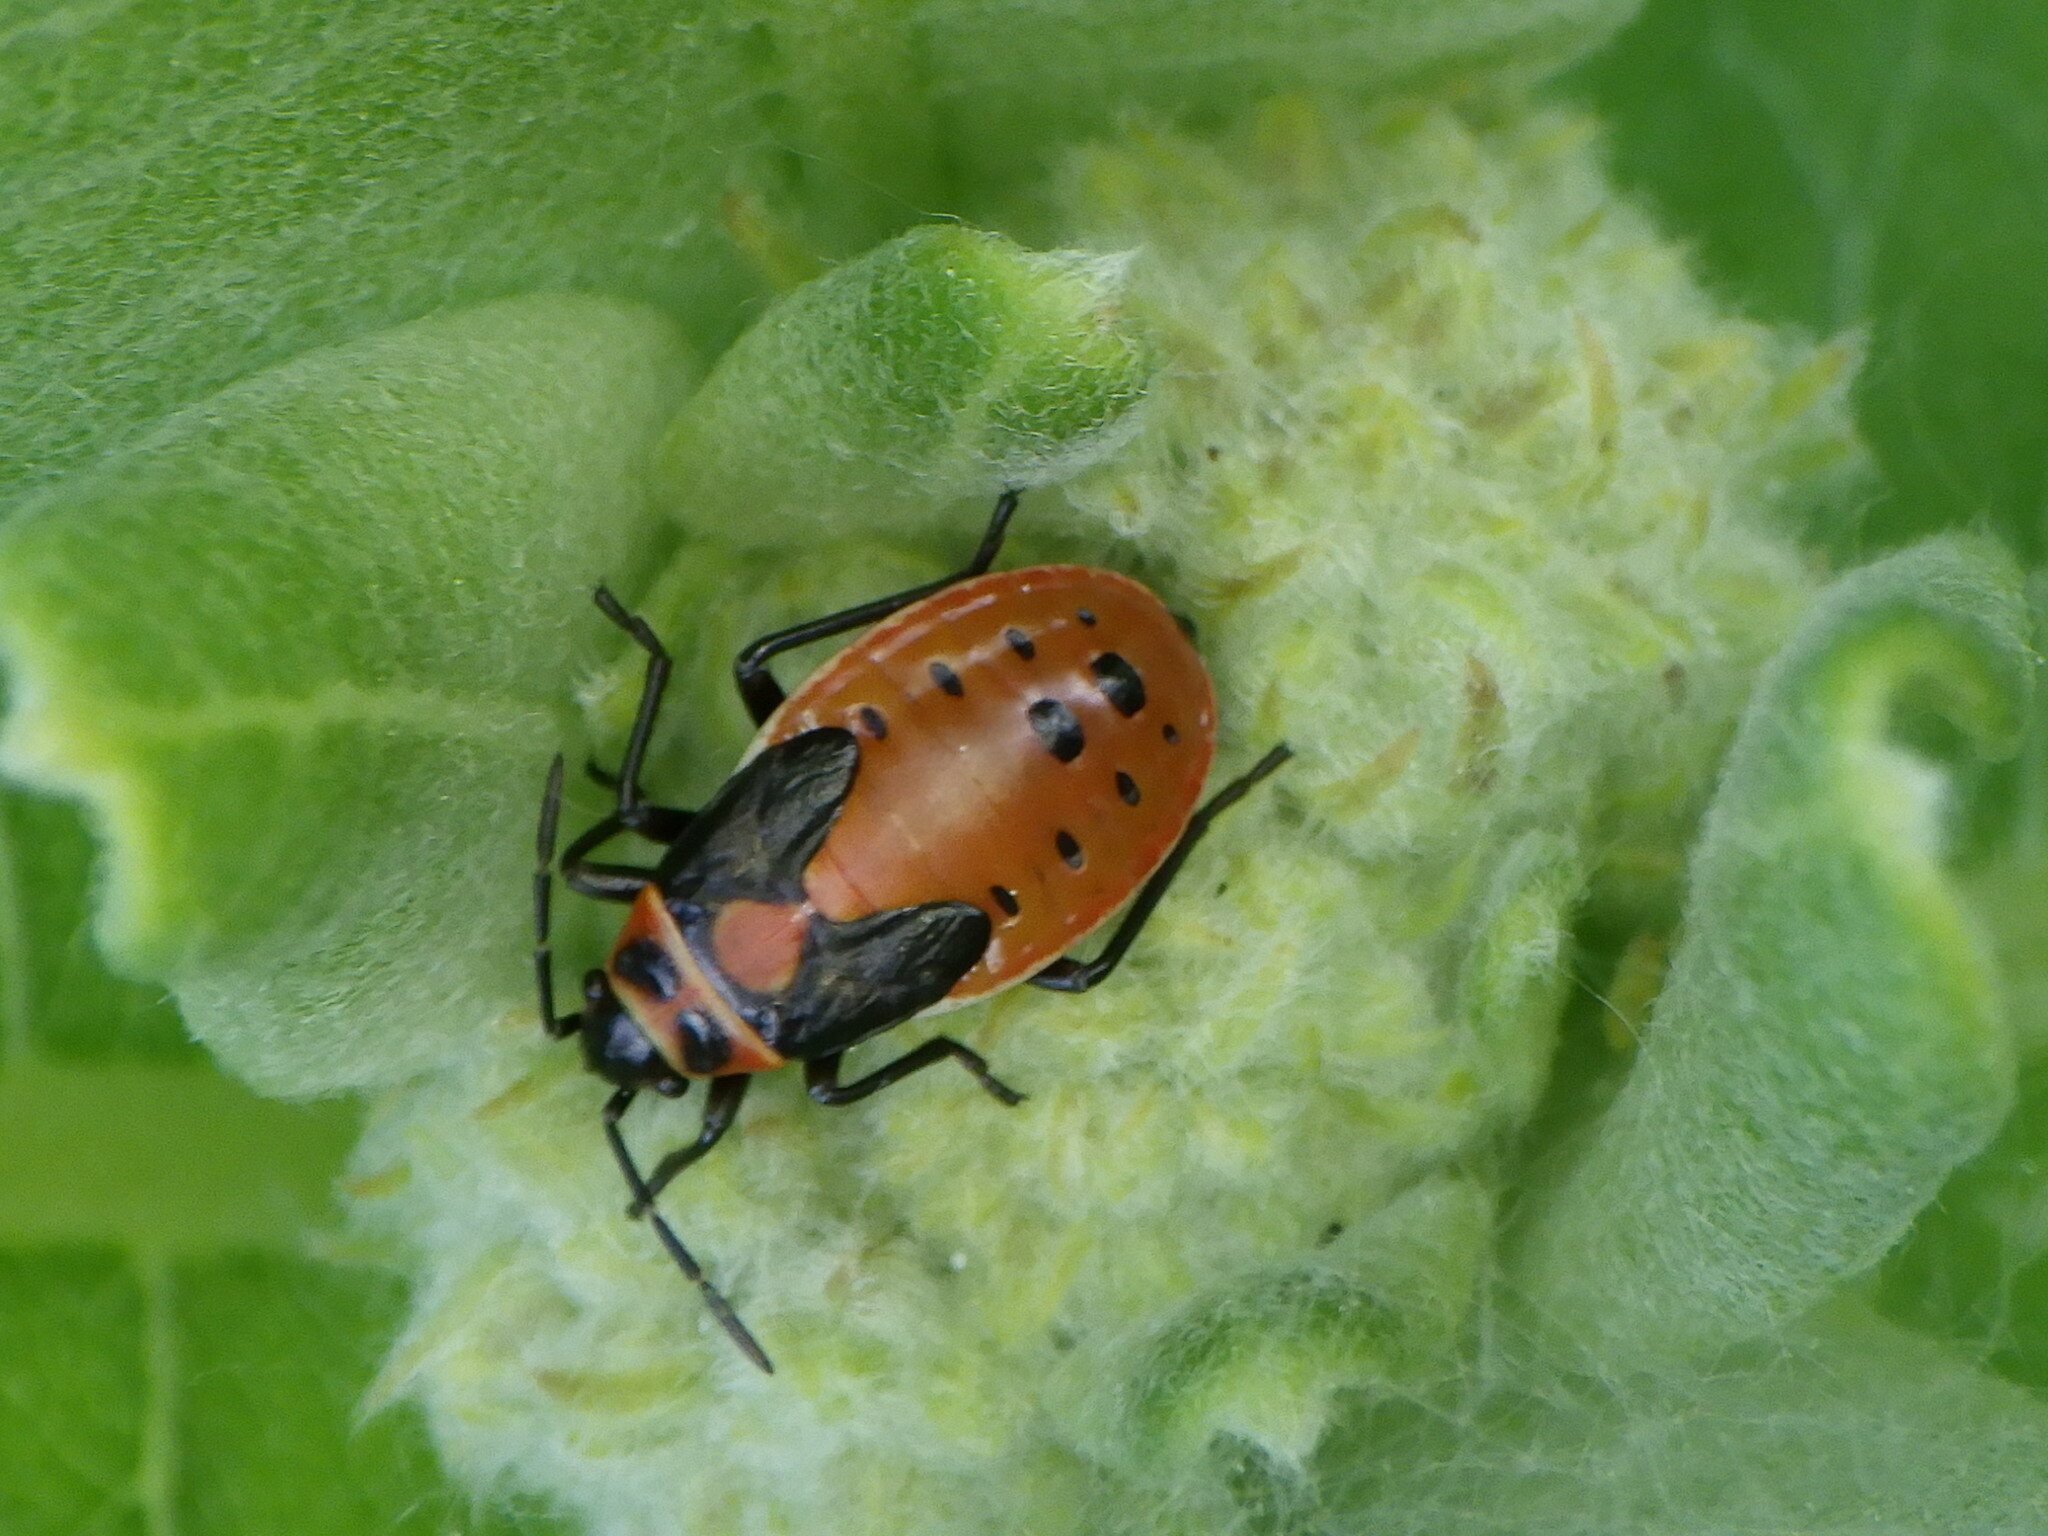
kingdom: Animalia
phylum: Arthropoda
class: Insecta
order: Hemiptera
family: Lygaeidae
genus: Lygaeus
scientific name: Lygaeus kalmii
